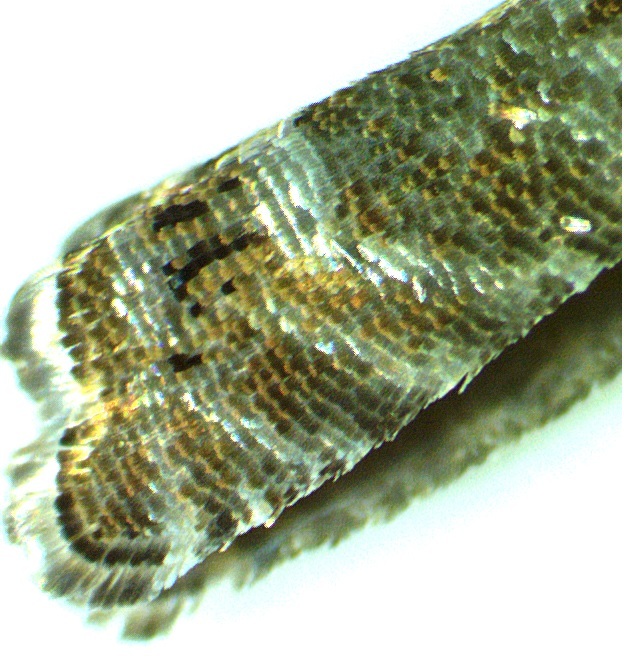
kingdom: Animalia
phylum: Arthropoda
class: Insecta
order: Lepidoptera
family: Tortricidae
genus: Cydia
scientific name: Cydia marita
